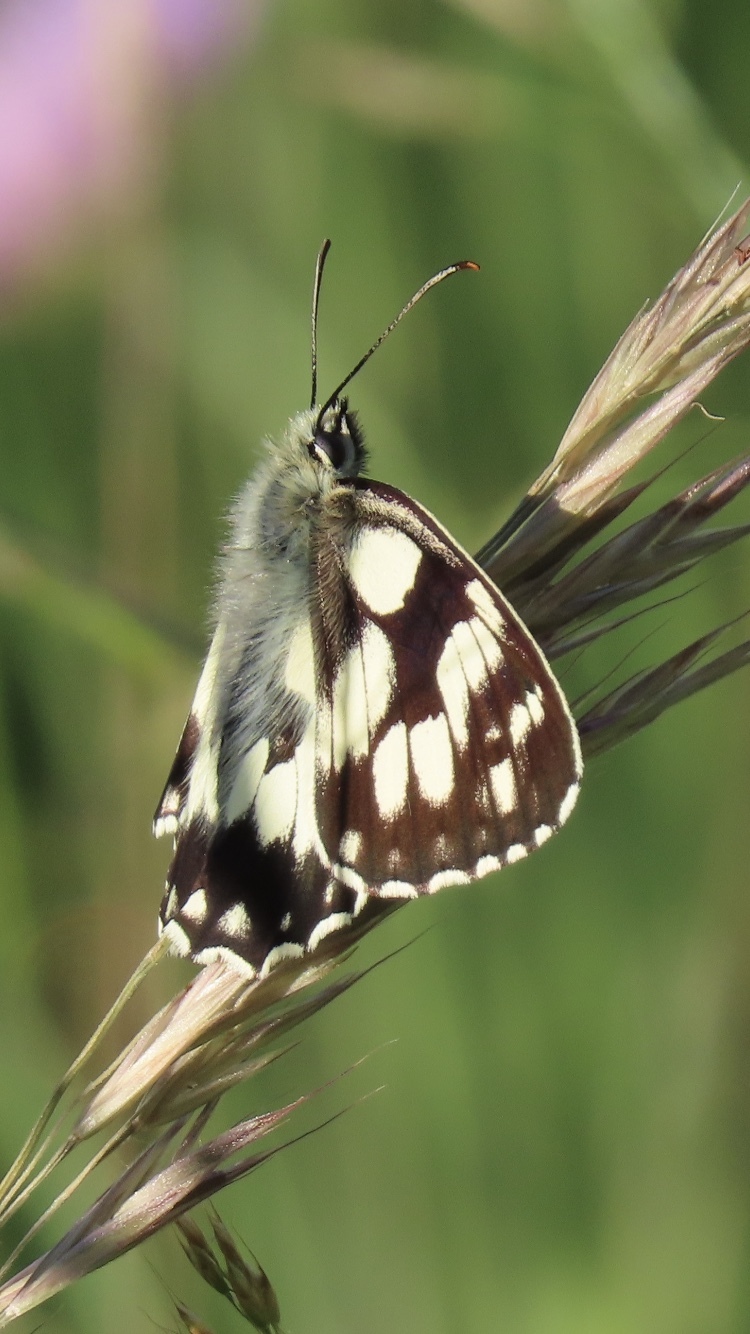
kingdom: Animalia
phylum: Arthropoda
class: Insecta
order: Lepidoptera
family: Nymphalidae
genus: Melanargia
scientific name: Melanargia galathea
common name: Marbled white
